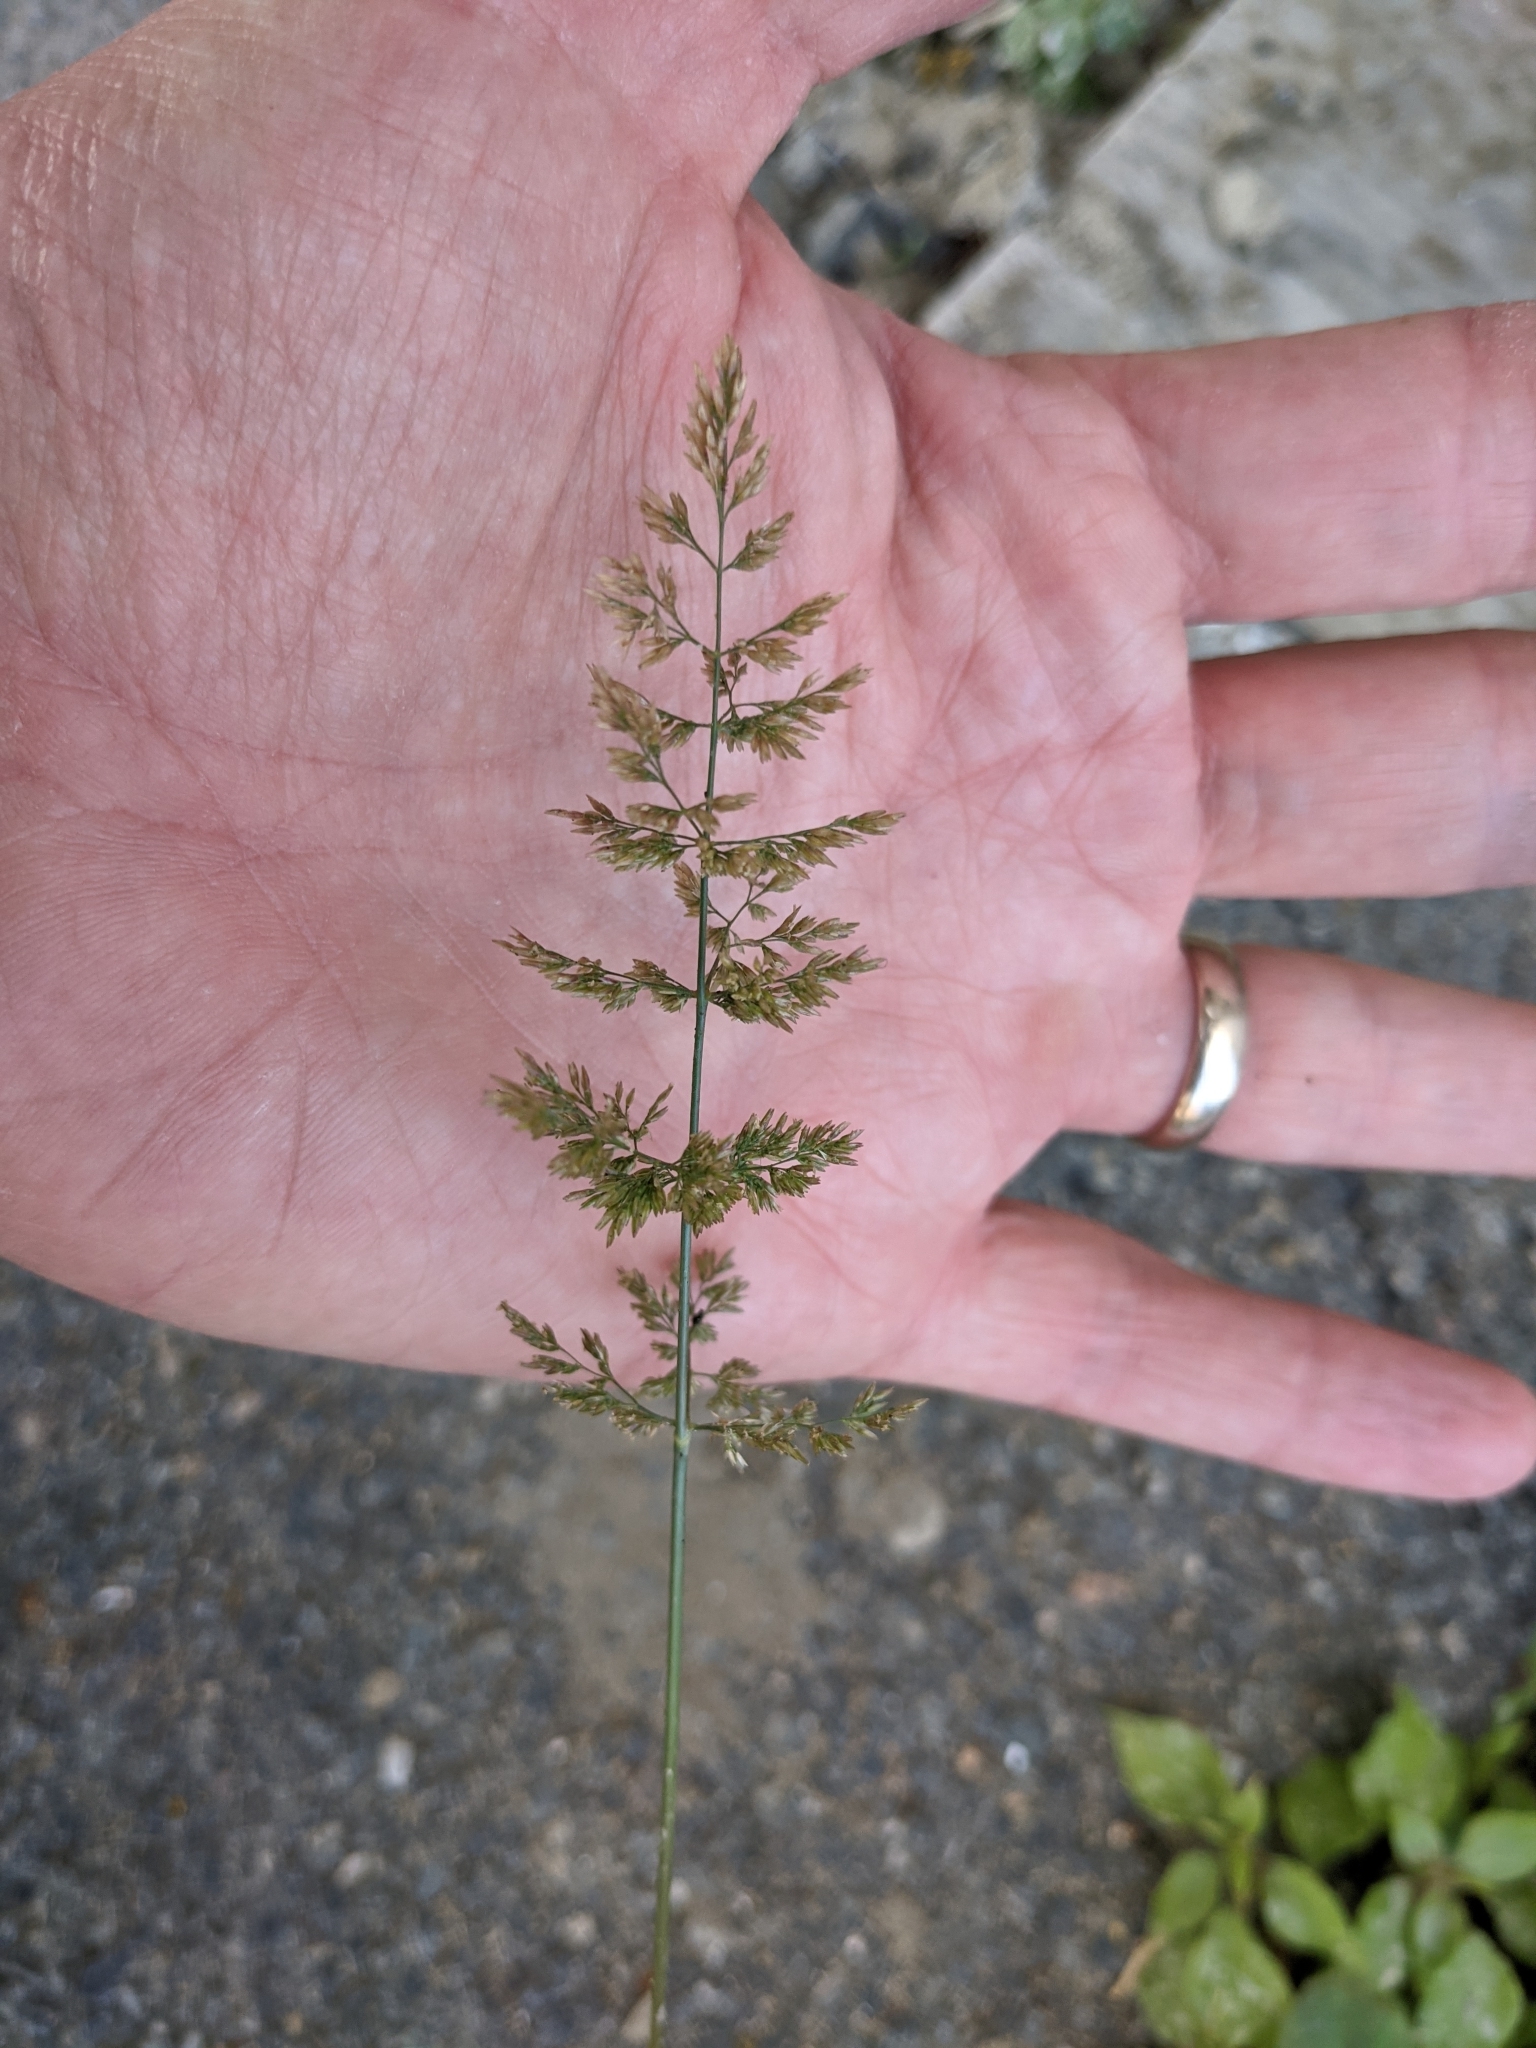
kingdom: Plantae
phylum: Tracheophyta
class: Liliopsida
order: Poales
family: Poaceae
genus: Polypogon
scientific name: Polypogon viridis
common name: Water bent
